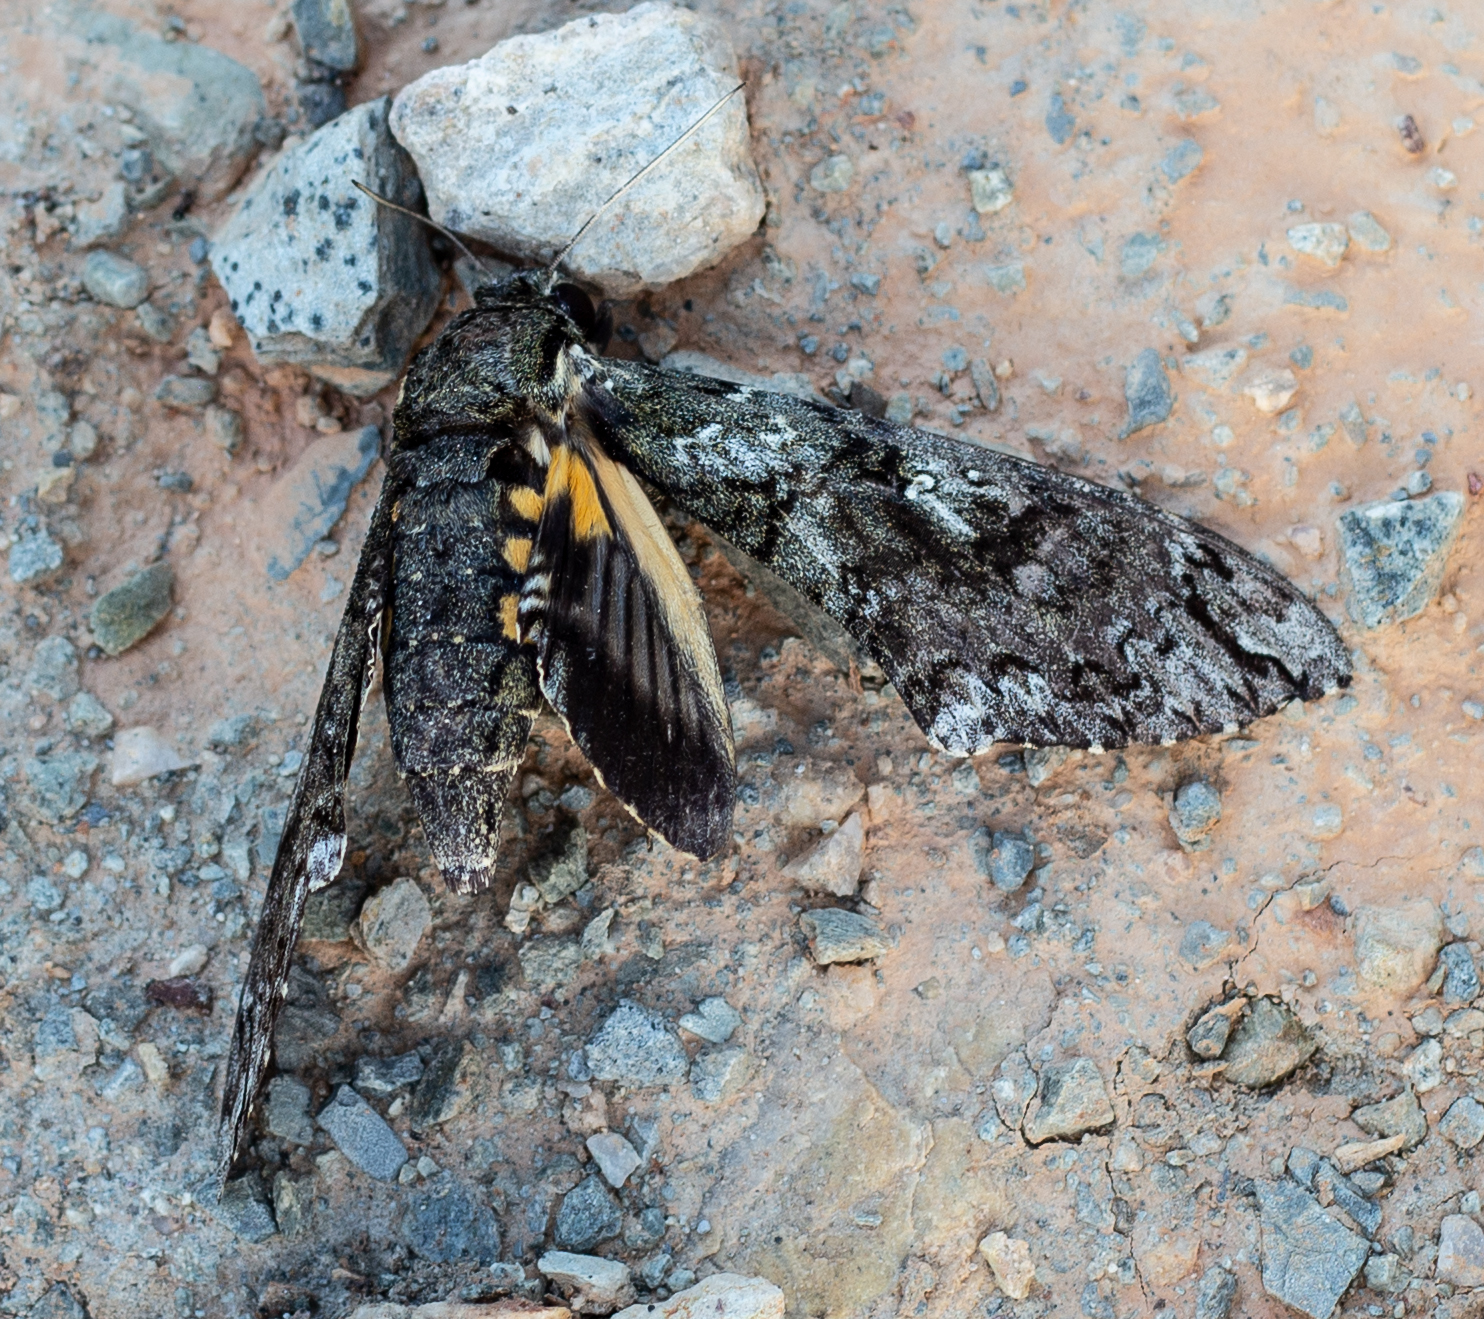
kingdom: Animalia
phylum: Arthropoda
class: Insecta
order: Lepidoptera
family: Sphingidae
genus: Cocytius
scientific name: Cocytius duponchel
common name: Duponchel's sphinx
